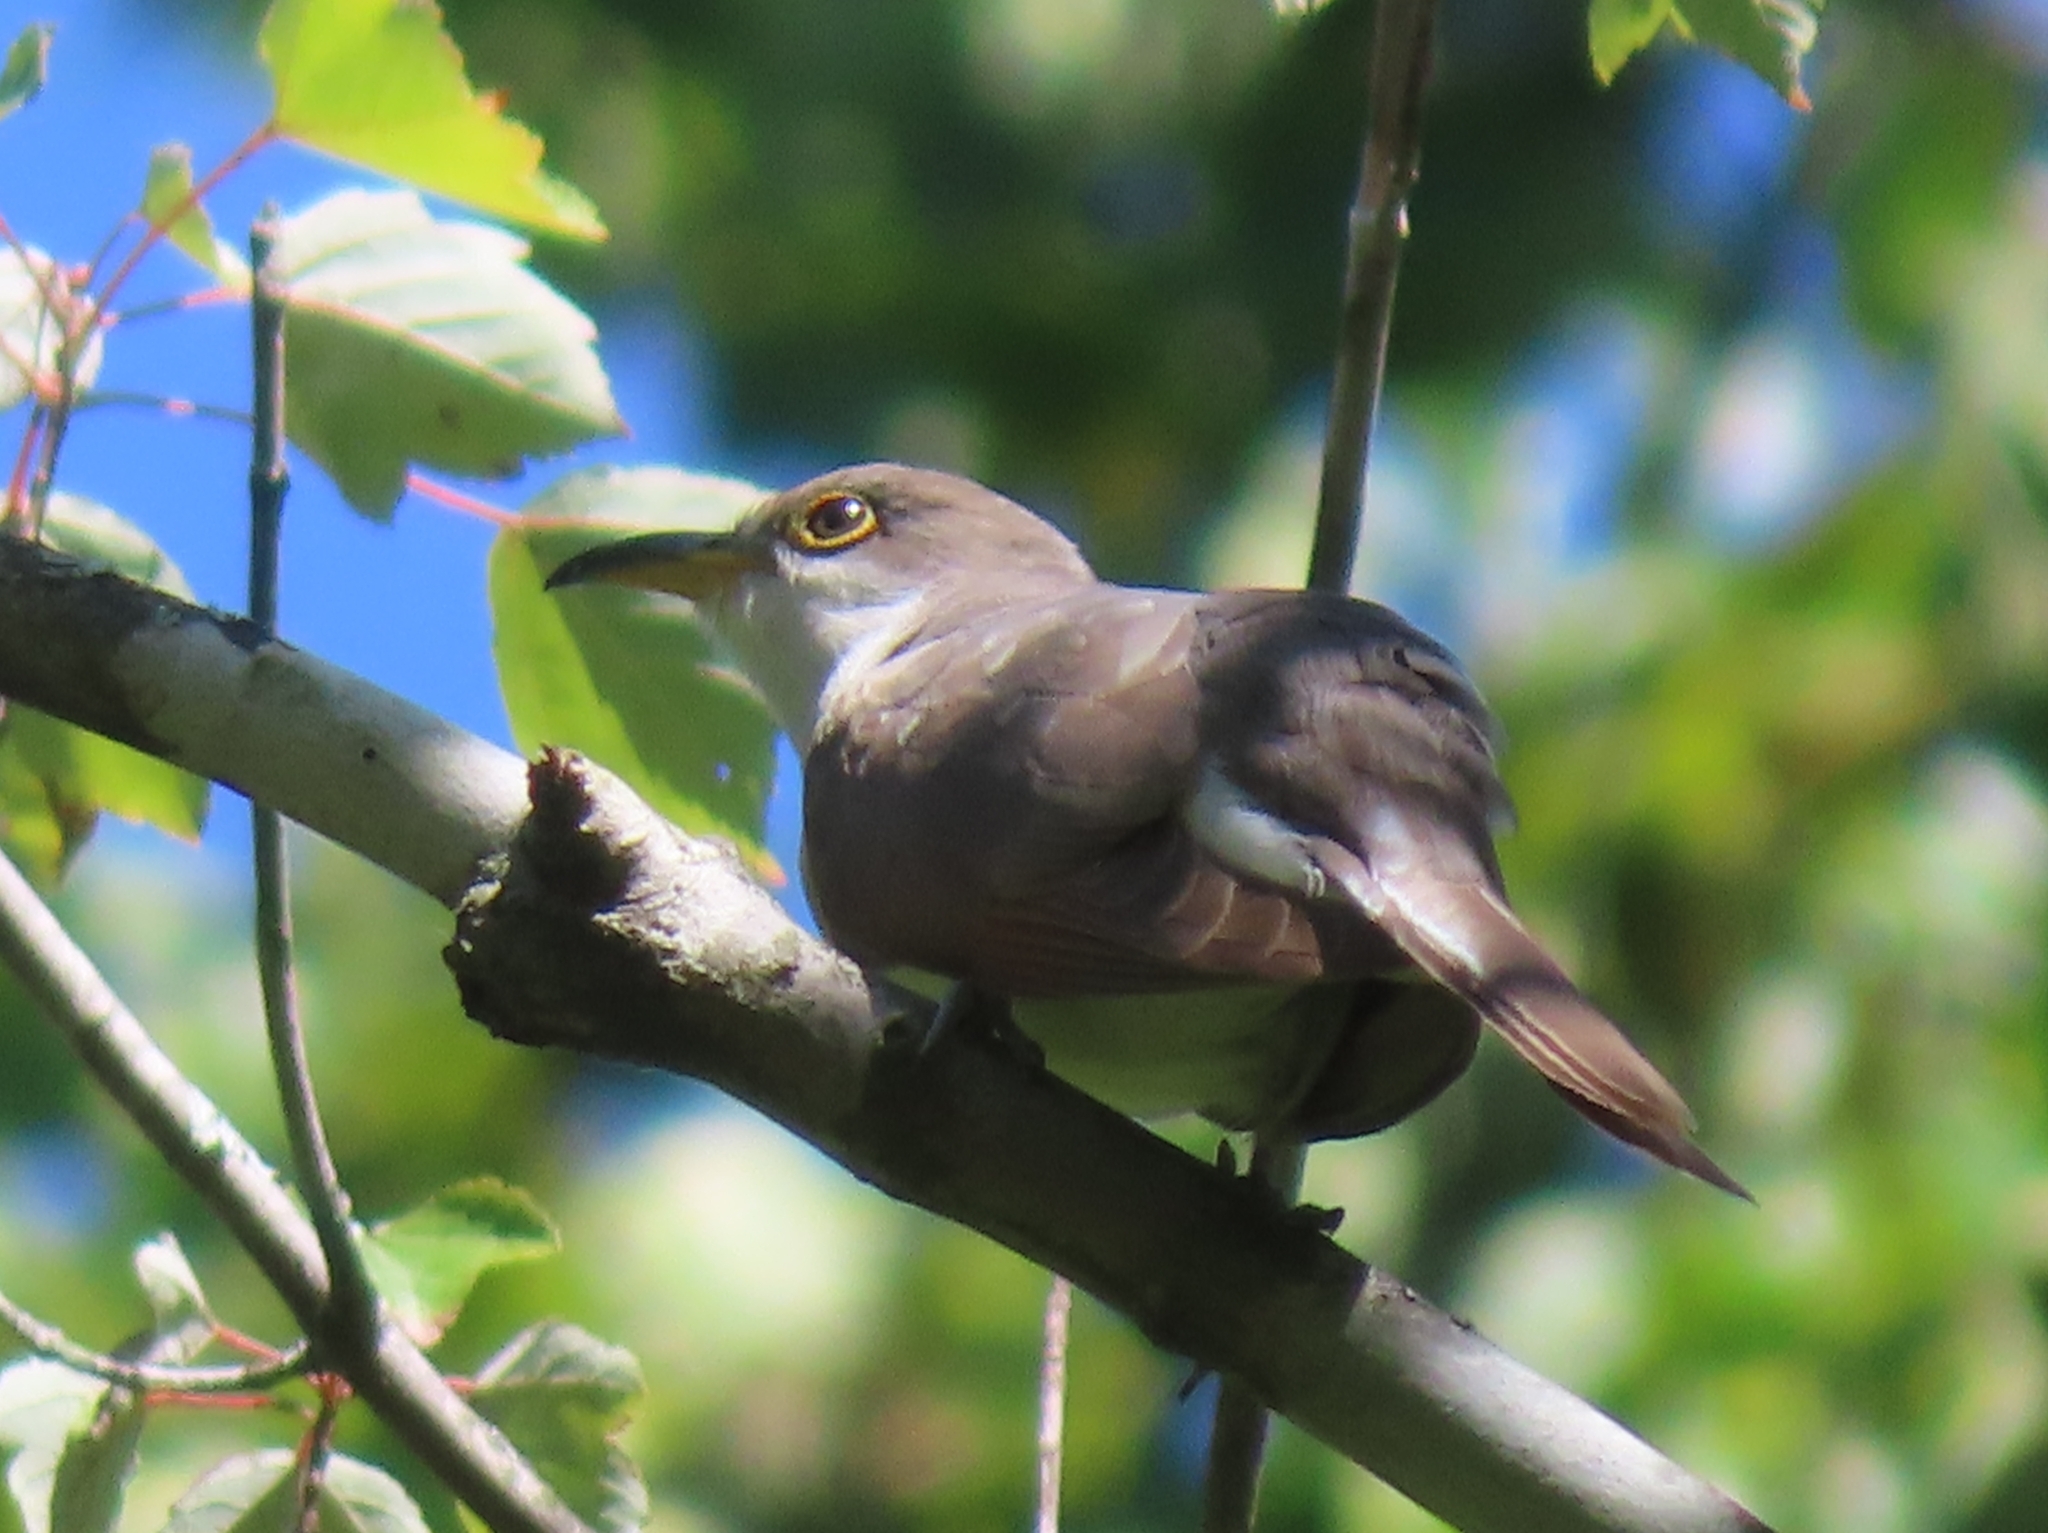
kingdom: Animalia
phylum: Chordata
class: Aves
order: Cuculiformes
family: Cuculidae
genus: Coccyzus
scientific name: Coccyzus americanus
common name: Yellow-billed cuckoo
